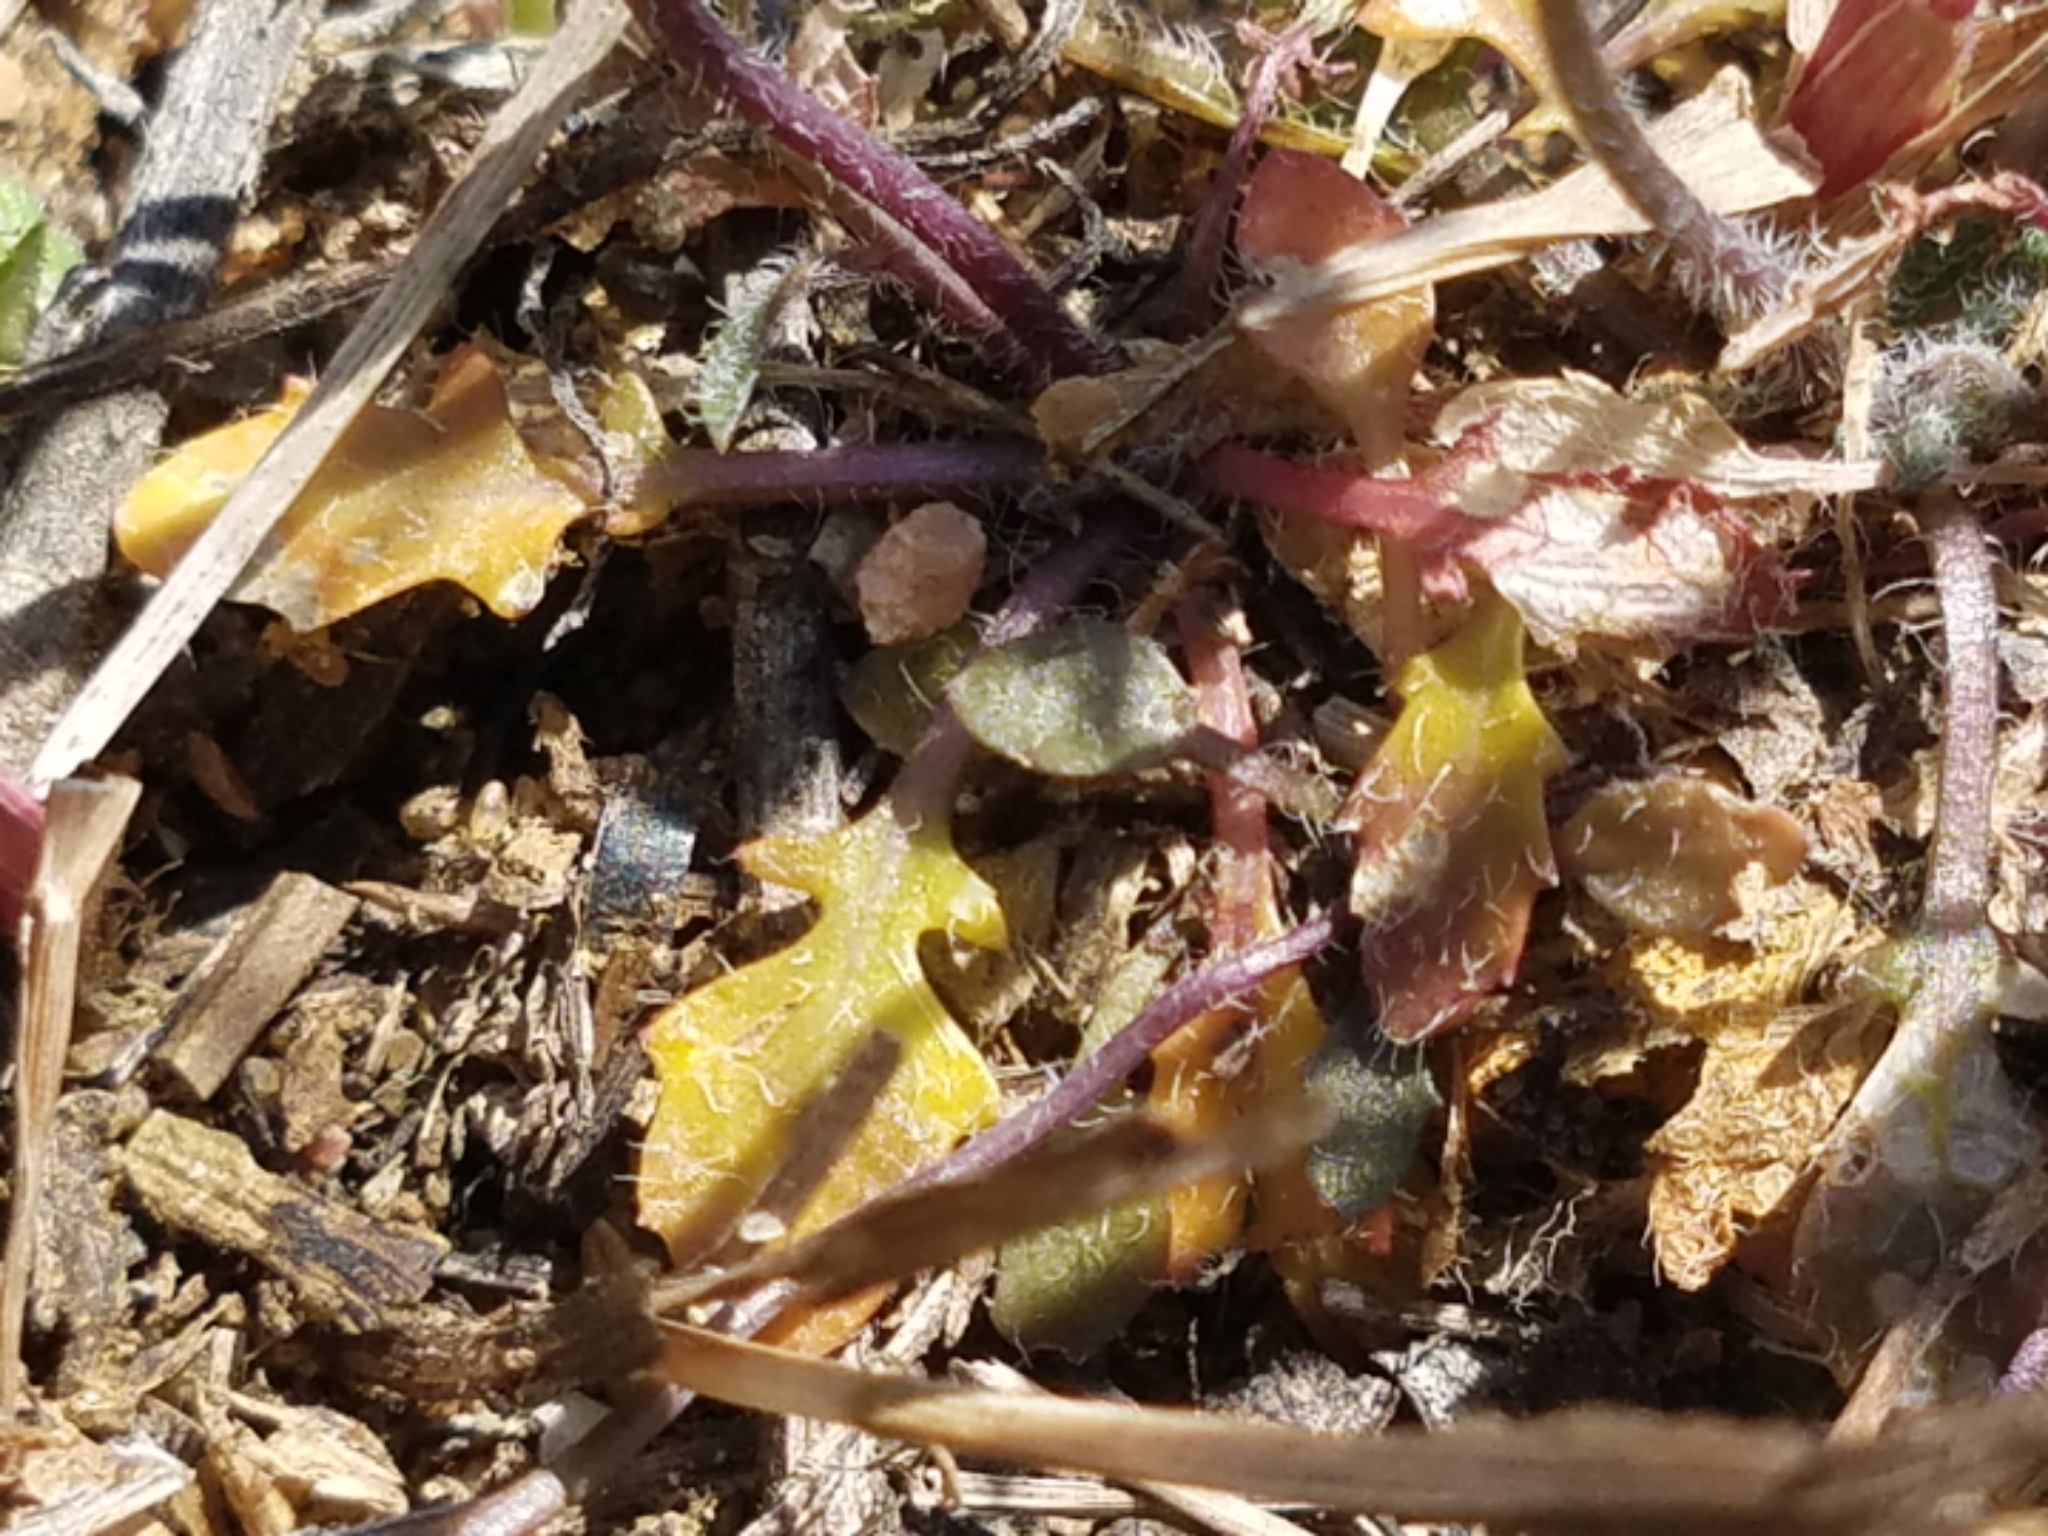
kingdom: Plantae
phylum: Tracheophyta
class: Magnoliopsida
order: Brassicales
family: Brassicaceae
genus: Arabidopsis
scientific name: Arabidopsis lyrata
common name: Lyrate rockcress
